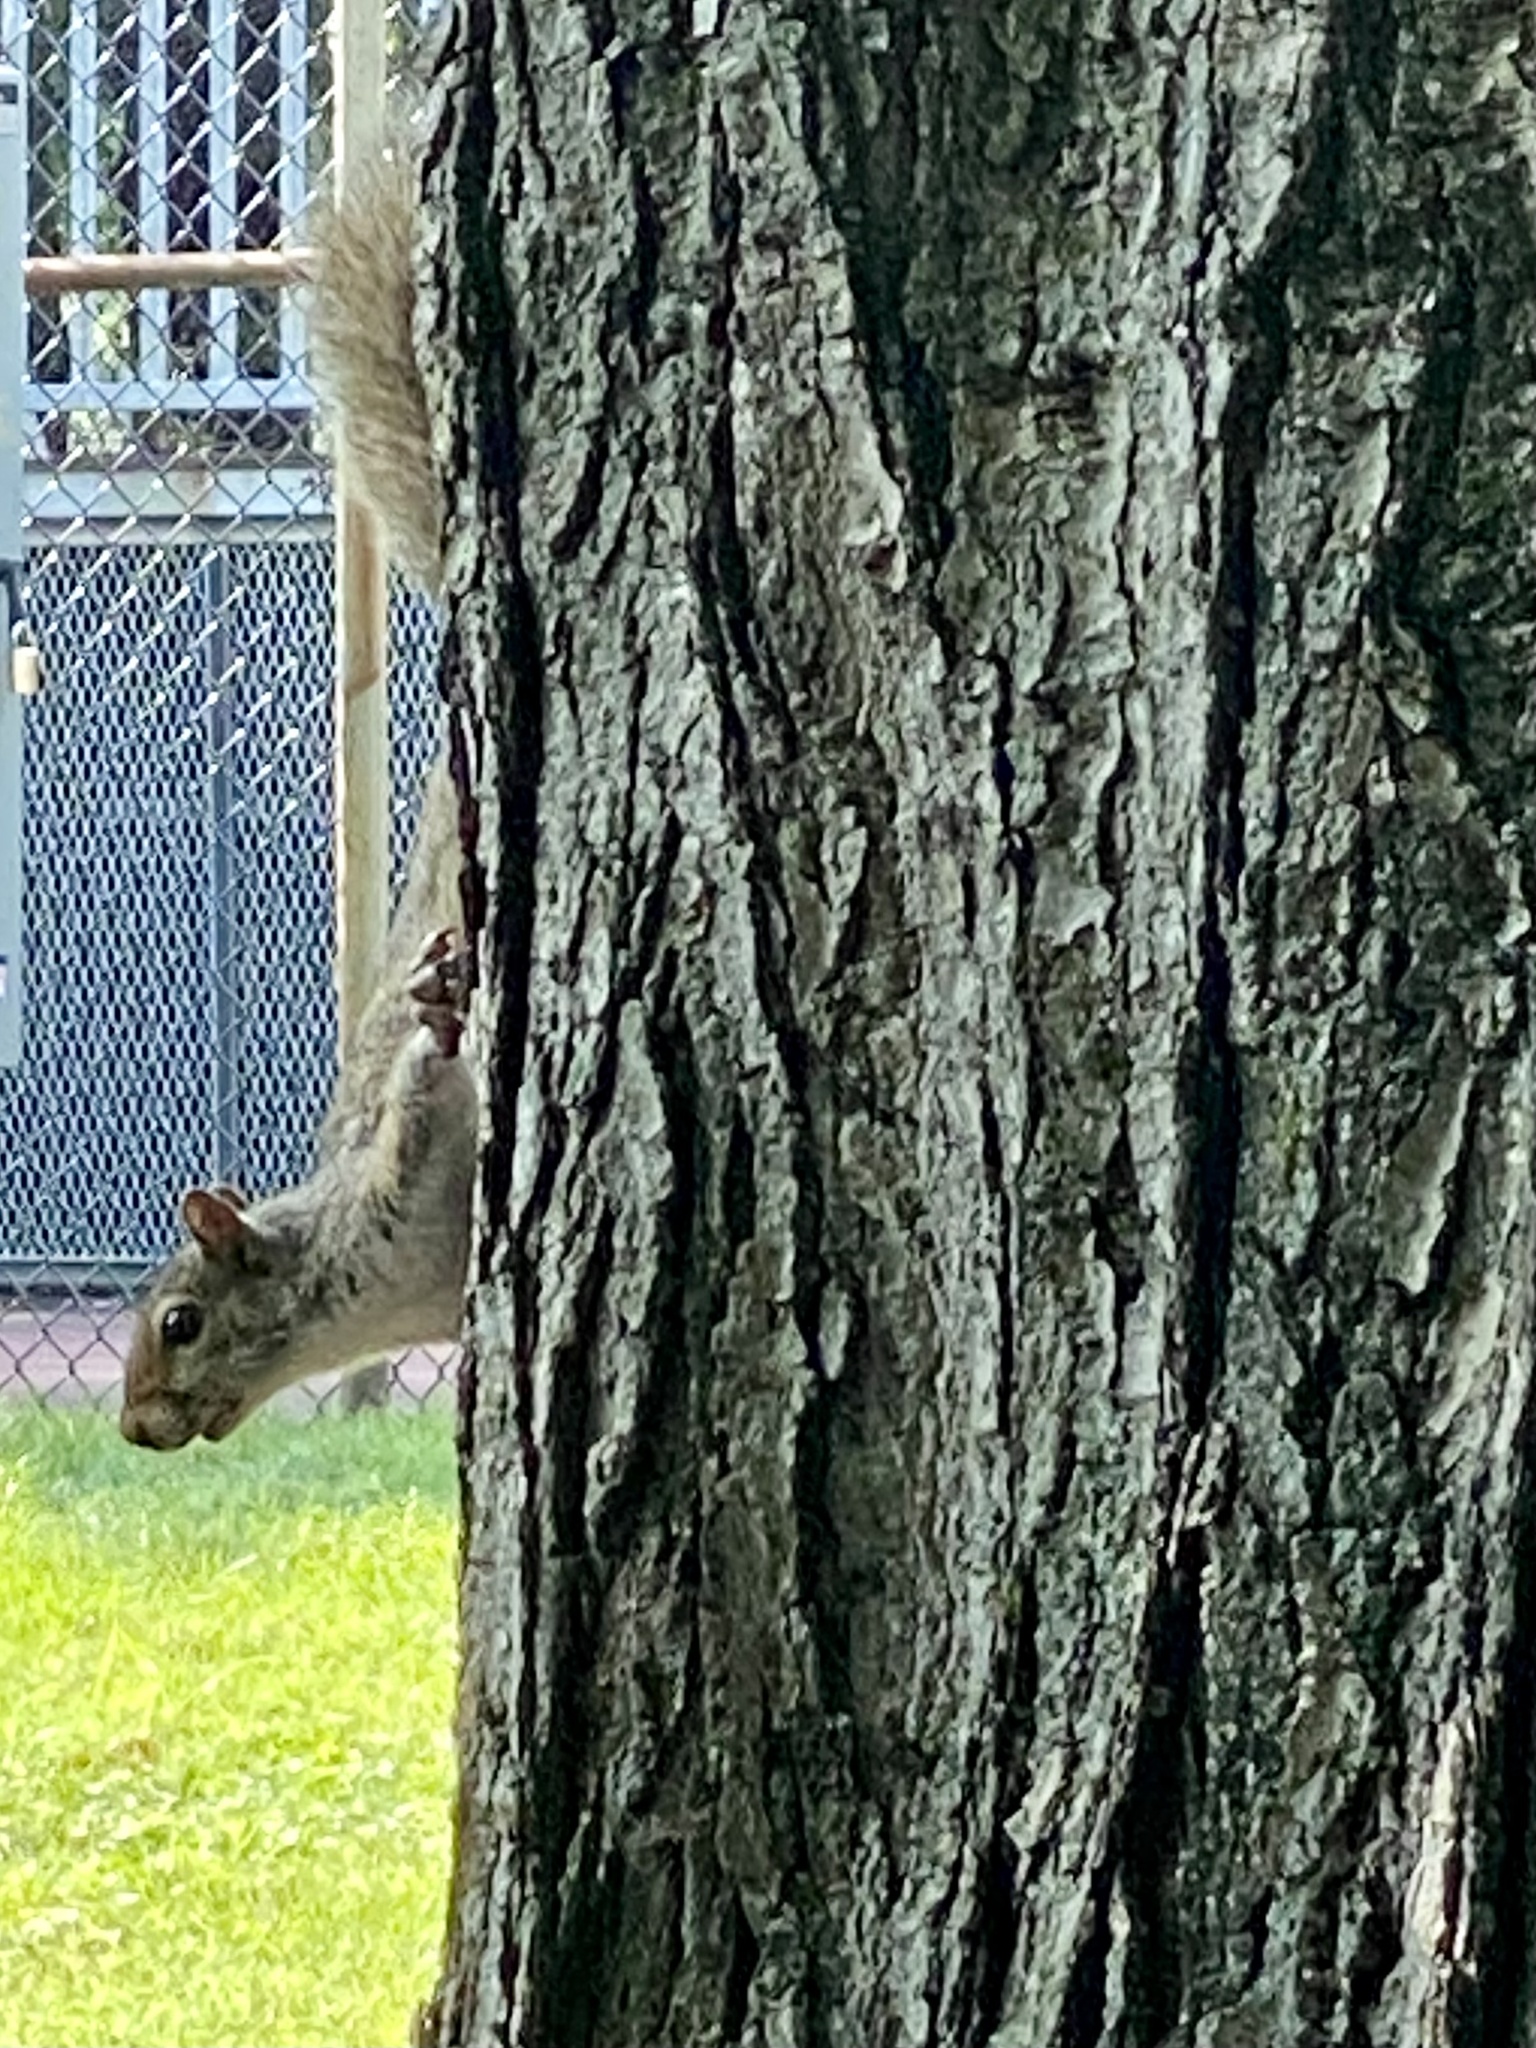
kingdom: Animalia
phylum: Chordata
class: Mammalia
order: Rodentia
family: Sciuridae
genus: Sciurus
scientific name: Sciurus carolinensis
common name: Eastern gray squirrel
